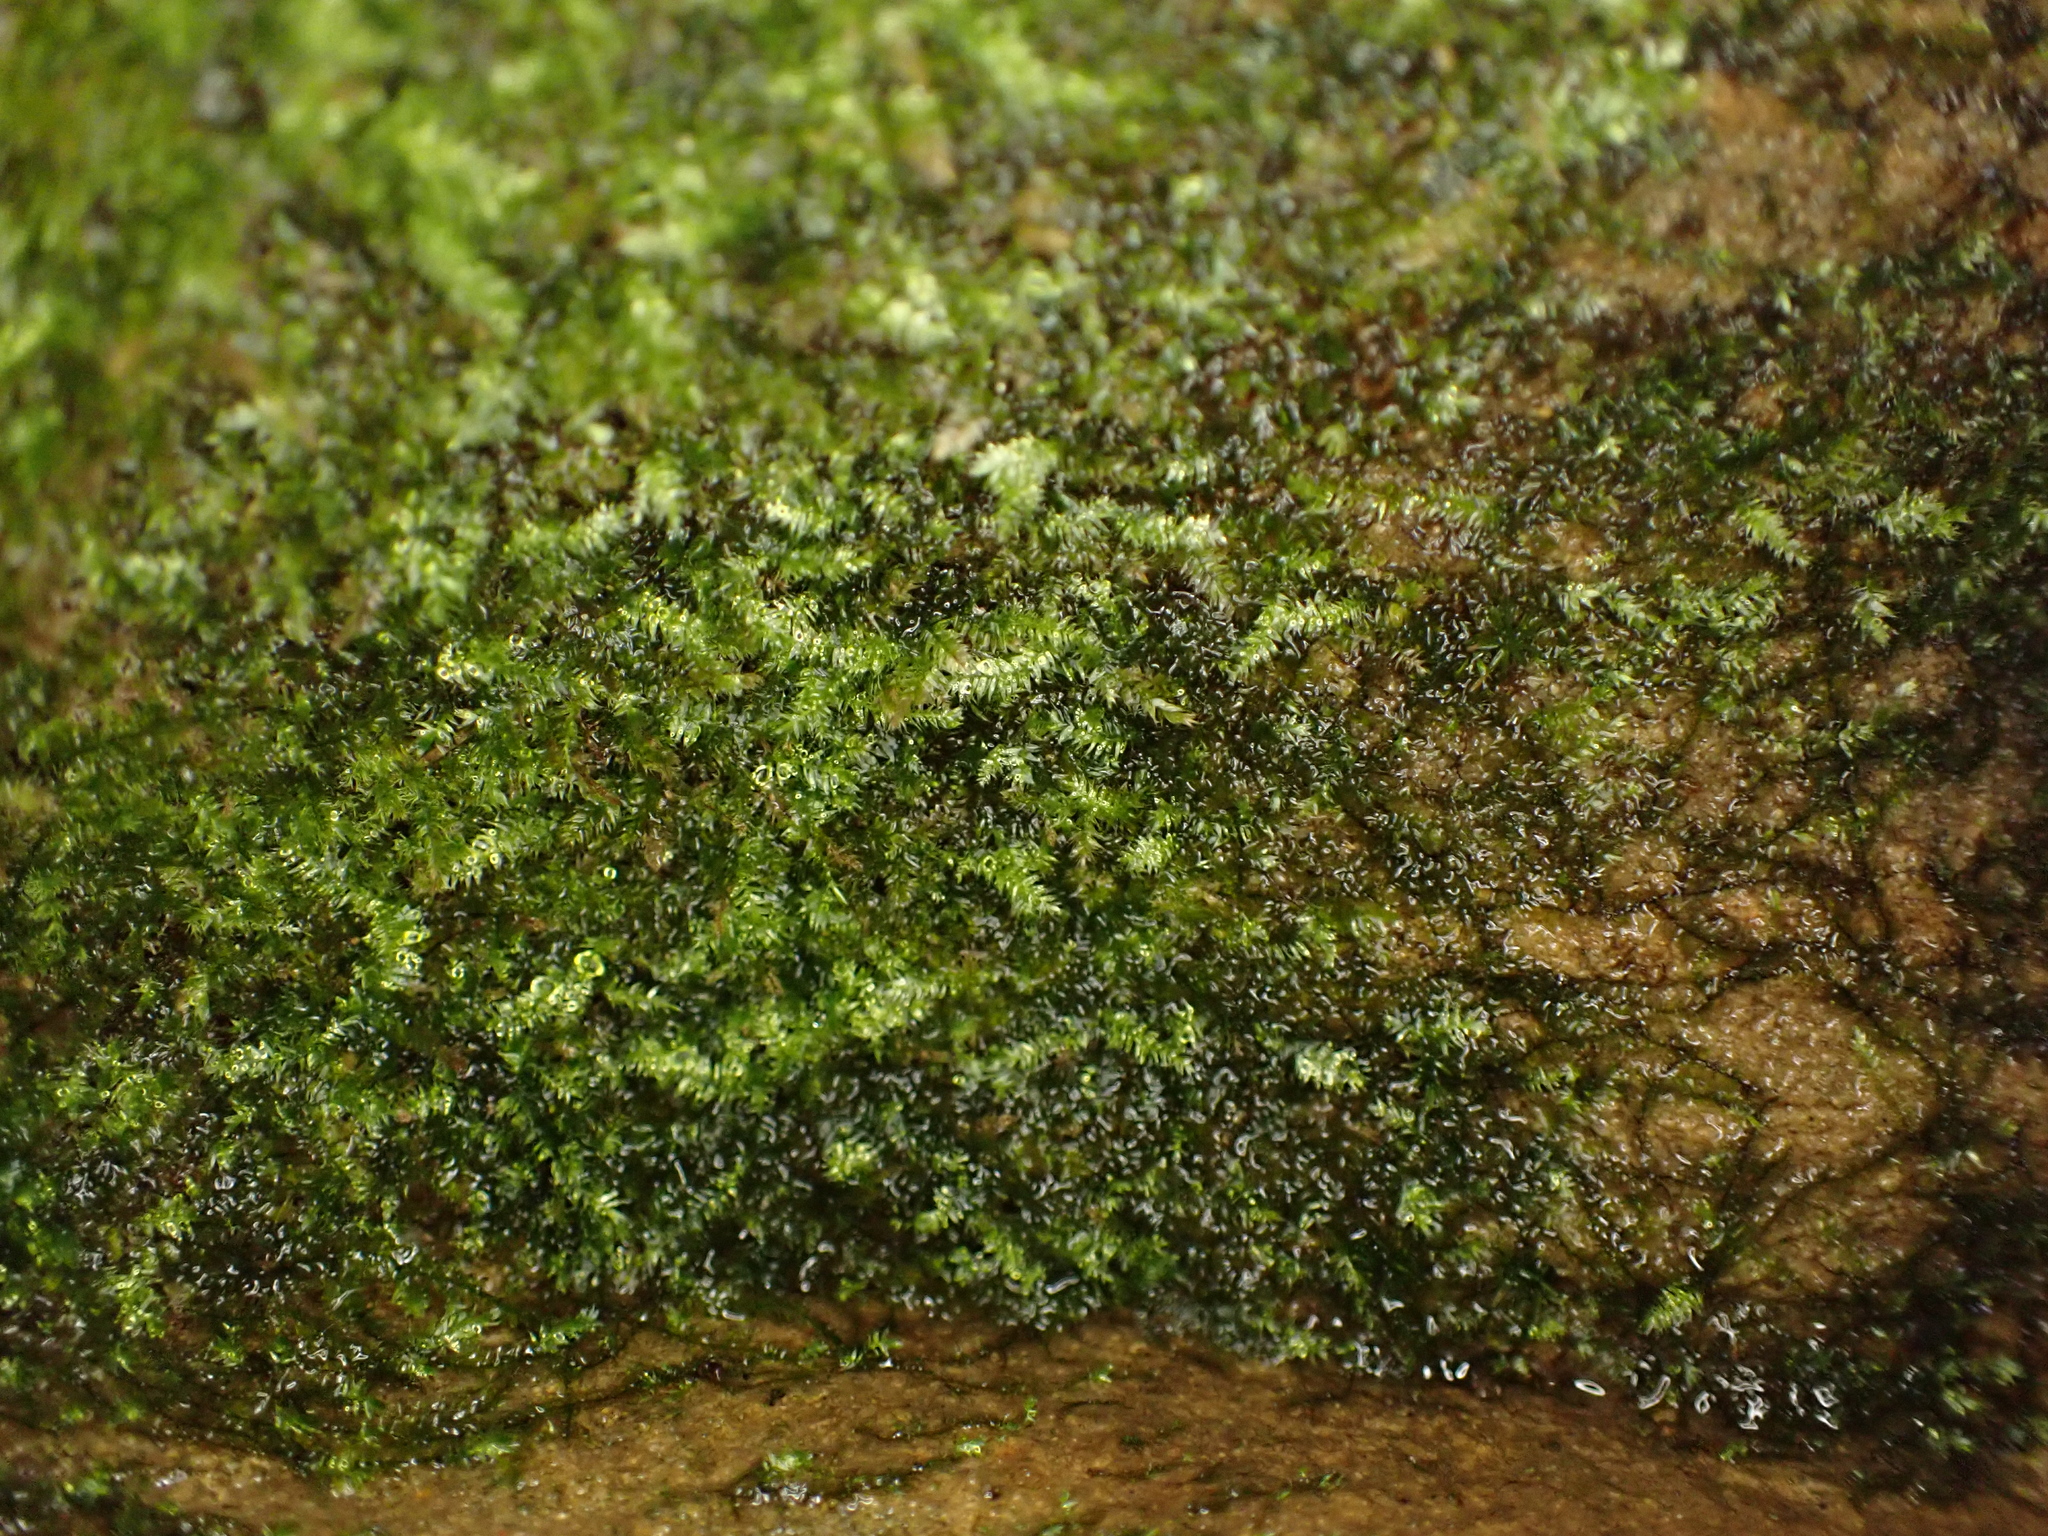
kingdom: Plantae
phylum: Bryophyta
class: Bryopsida
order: Hypnales
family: Plagiotheciaceae
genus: Pseudotaxiphyllum
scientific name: Pseudotaxiphyllum elegans
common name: Elegant silk moss
